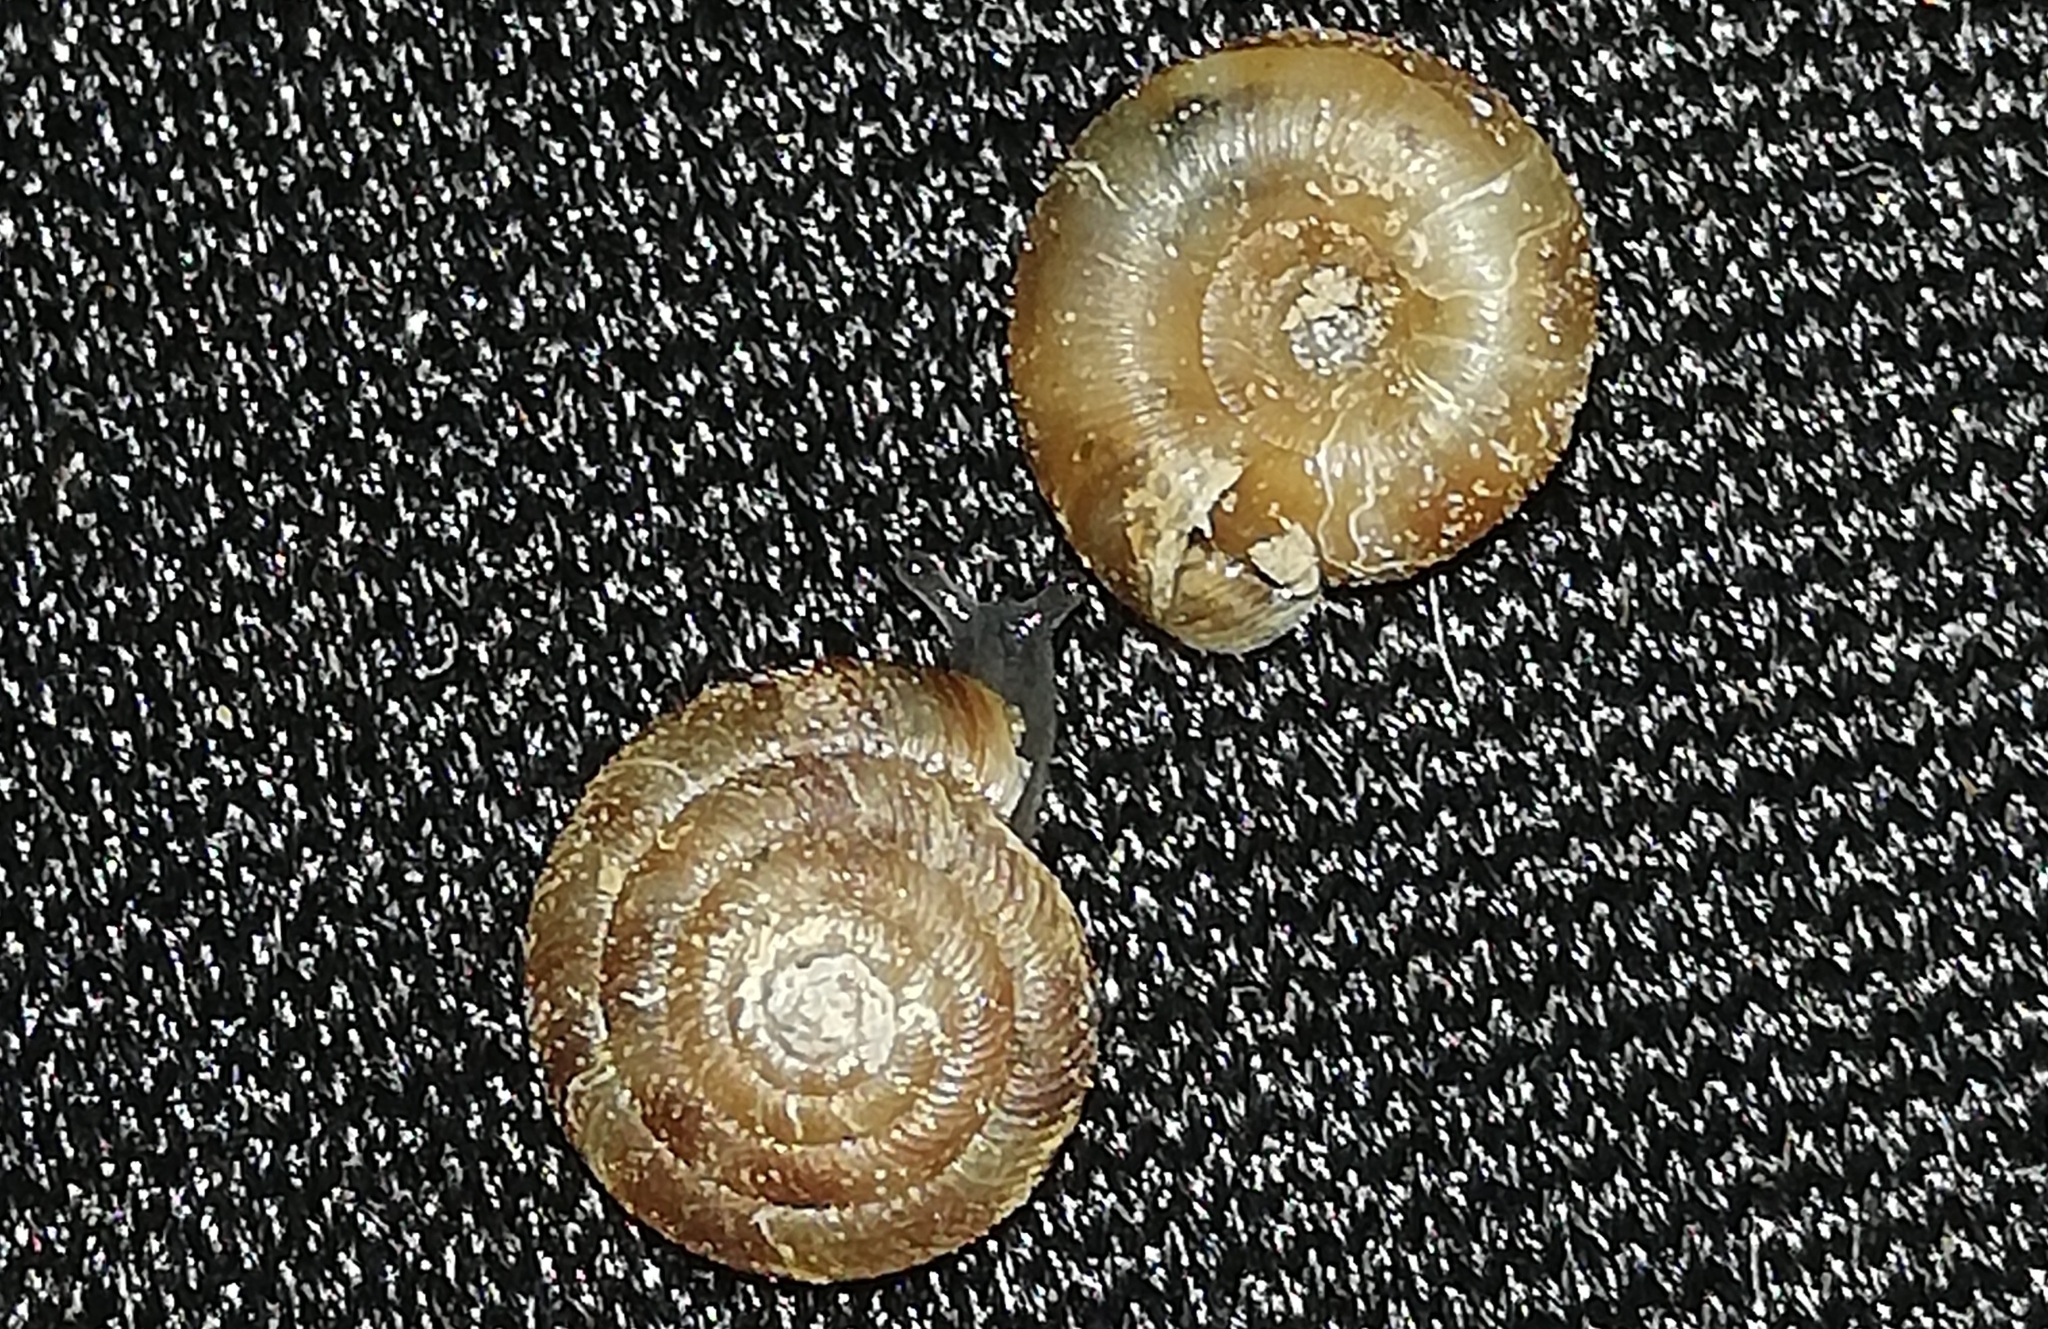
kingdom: Animalia
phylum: Mollusca
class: Gastropoda
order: Stylommatophora
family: Discidae
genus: Discus
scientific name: Discus rotundatus
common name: Rounded snail
